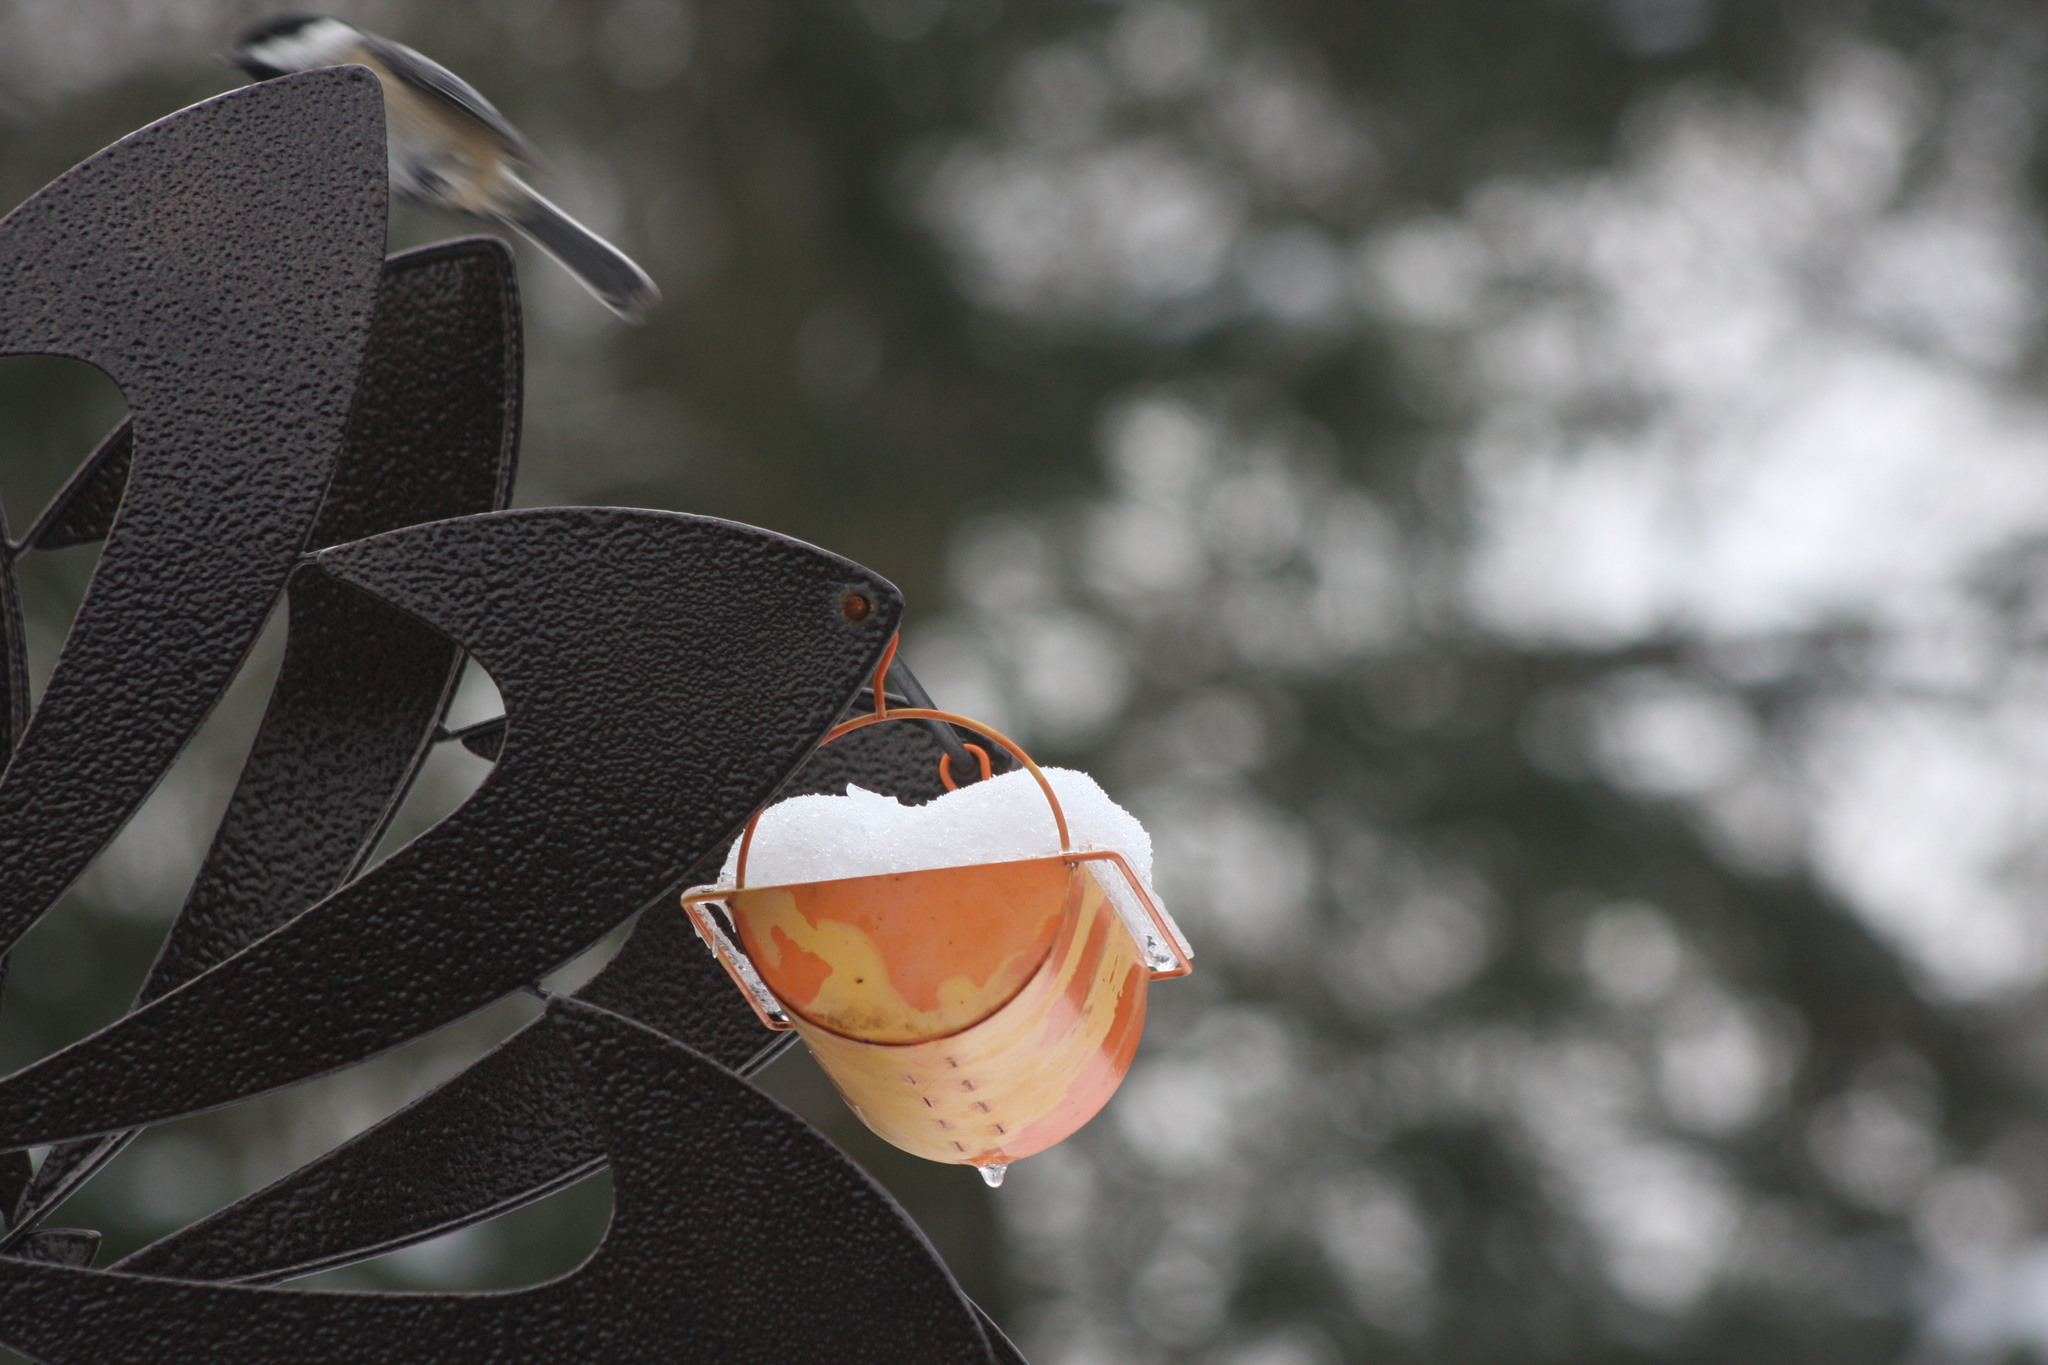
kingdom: Animalia
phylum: Chordata
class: Aves
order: Passeriformes
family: Paridae
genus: Poecile
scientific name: Poecile atricapillus
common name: Black-capped chickadee
